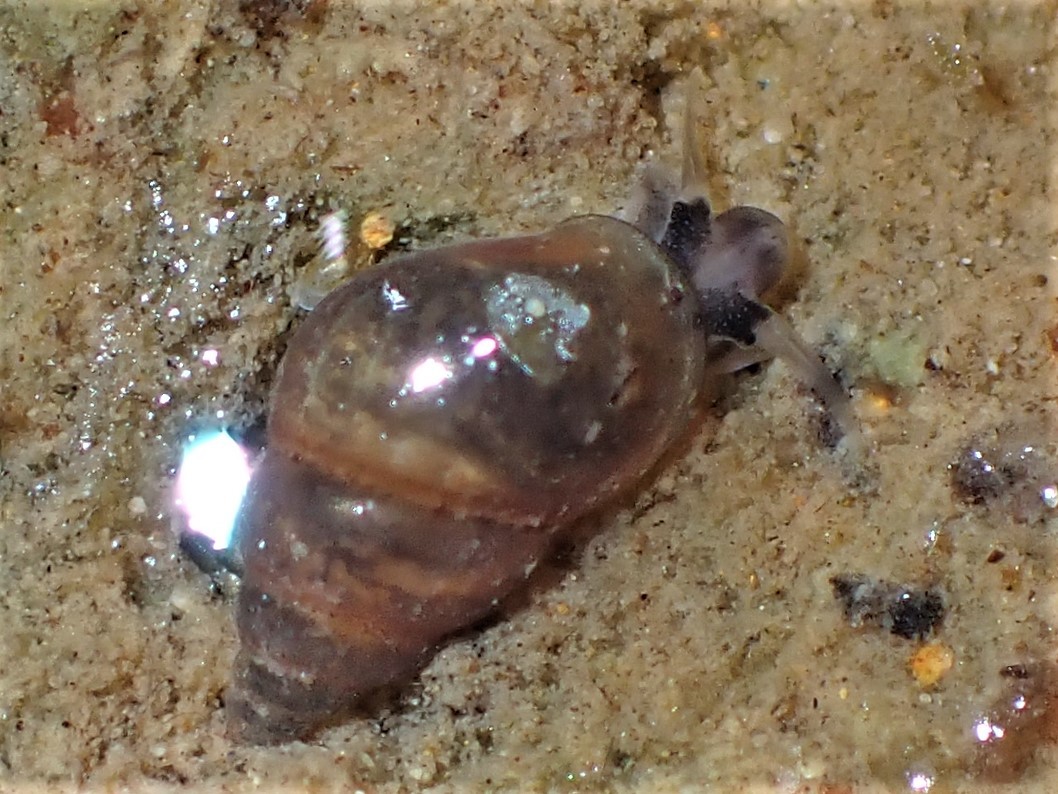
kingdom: Animalia
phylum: Mollusca
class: Gastropoda
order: Littorinimorpha
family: Tateidae
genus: Potamopyrgus
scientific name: Potamopyrgus antipodarum
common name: Jenkins' spire snail
